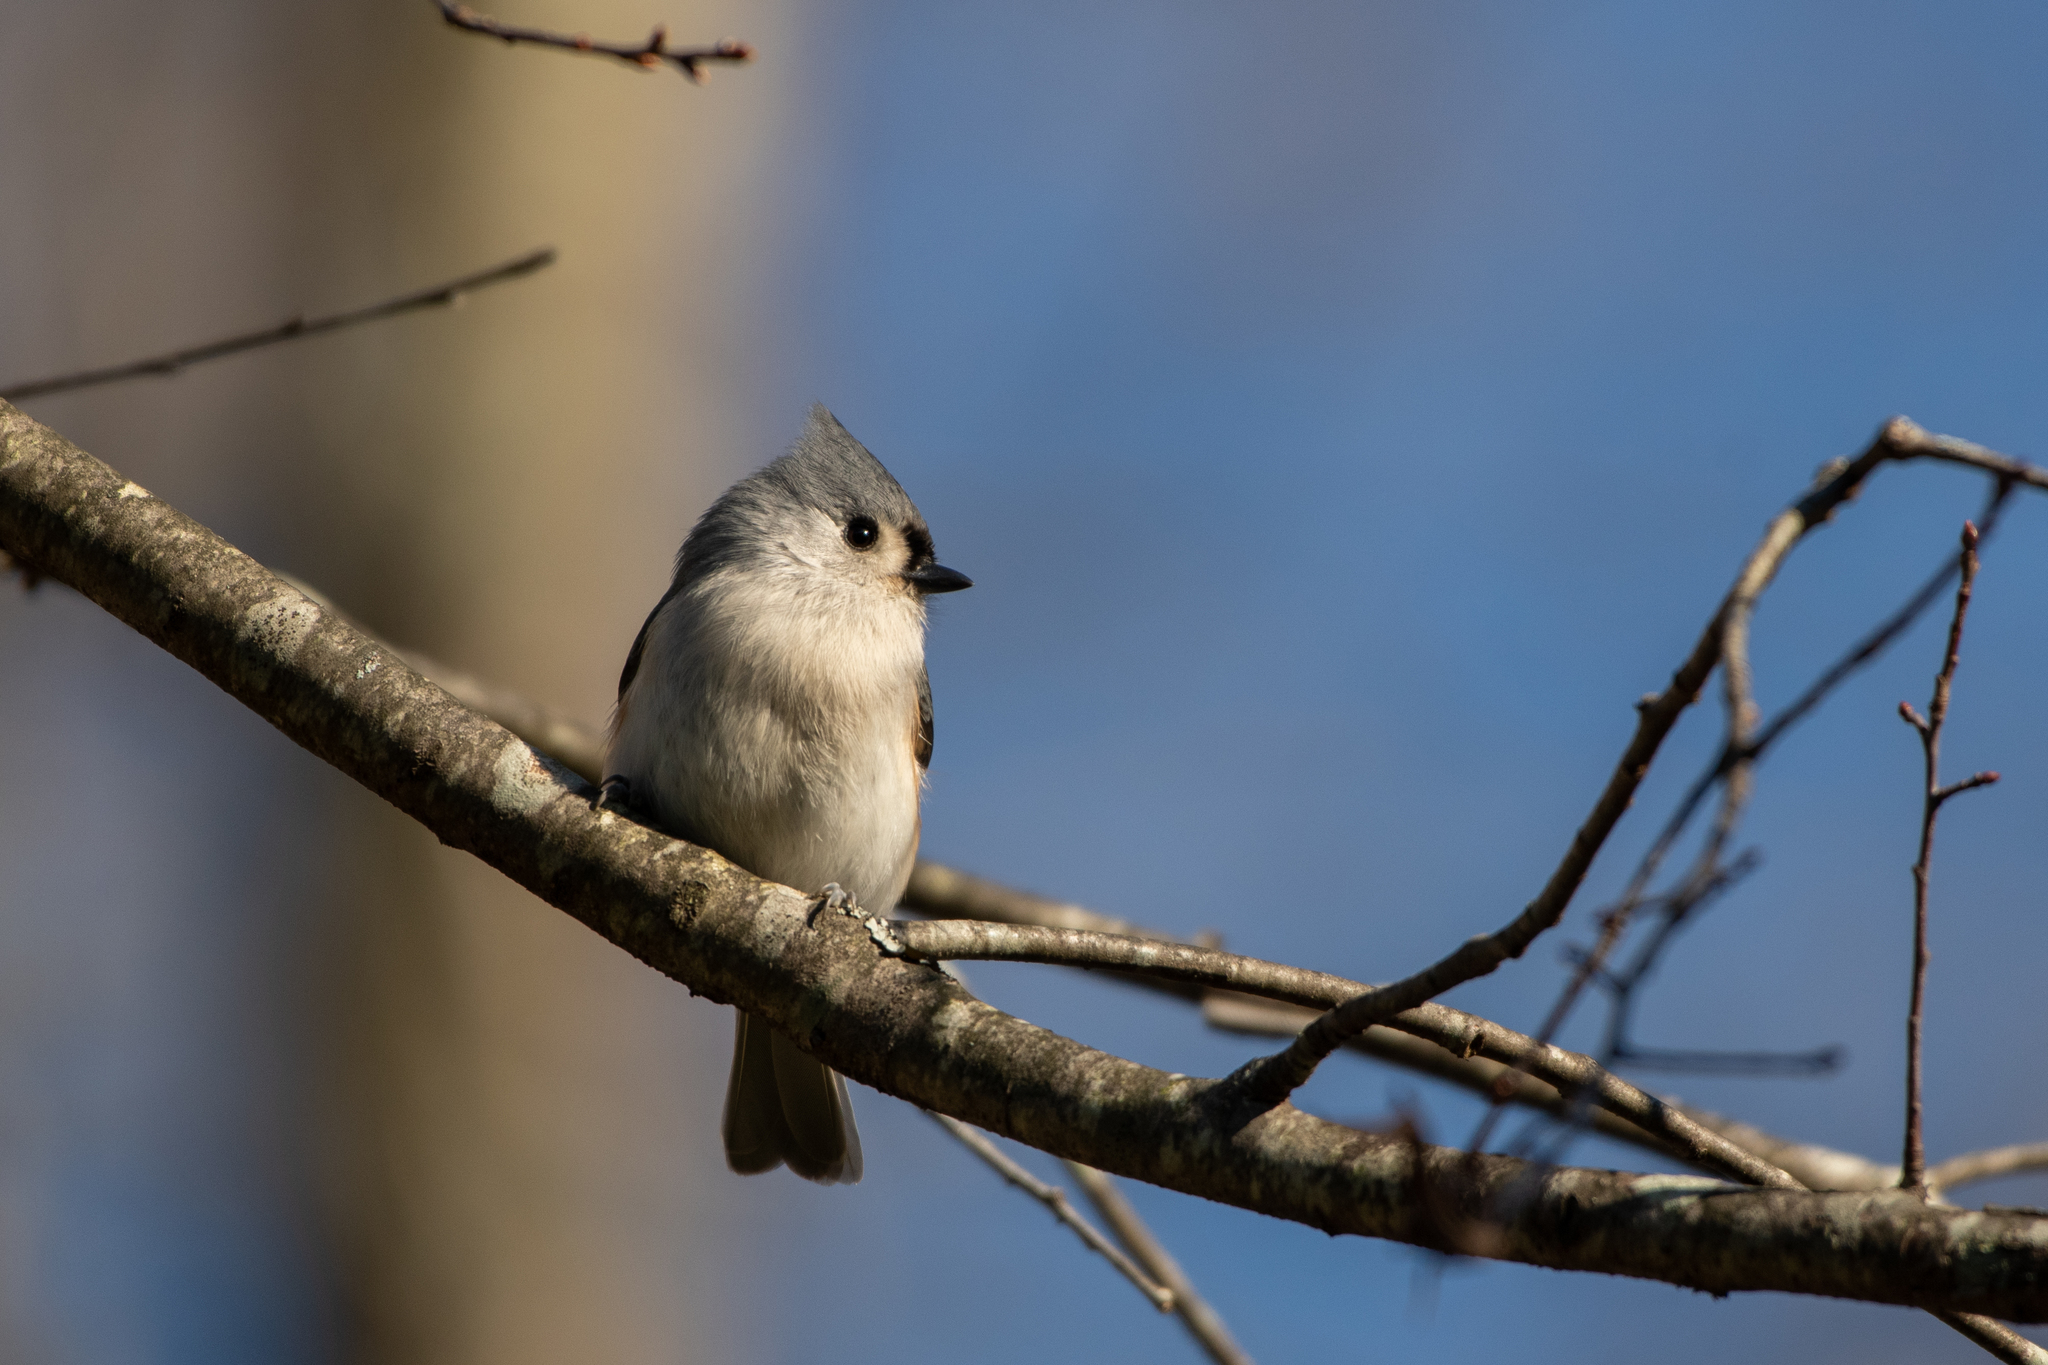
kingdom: Animalia
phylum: Chordata
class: Aves
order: Passeriformes
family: Paridae
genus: Baeolophus
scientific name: Baeolophus bicolor
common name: Tufted titmouse
